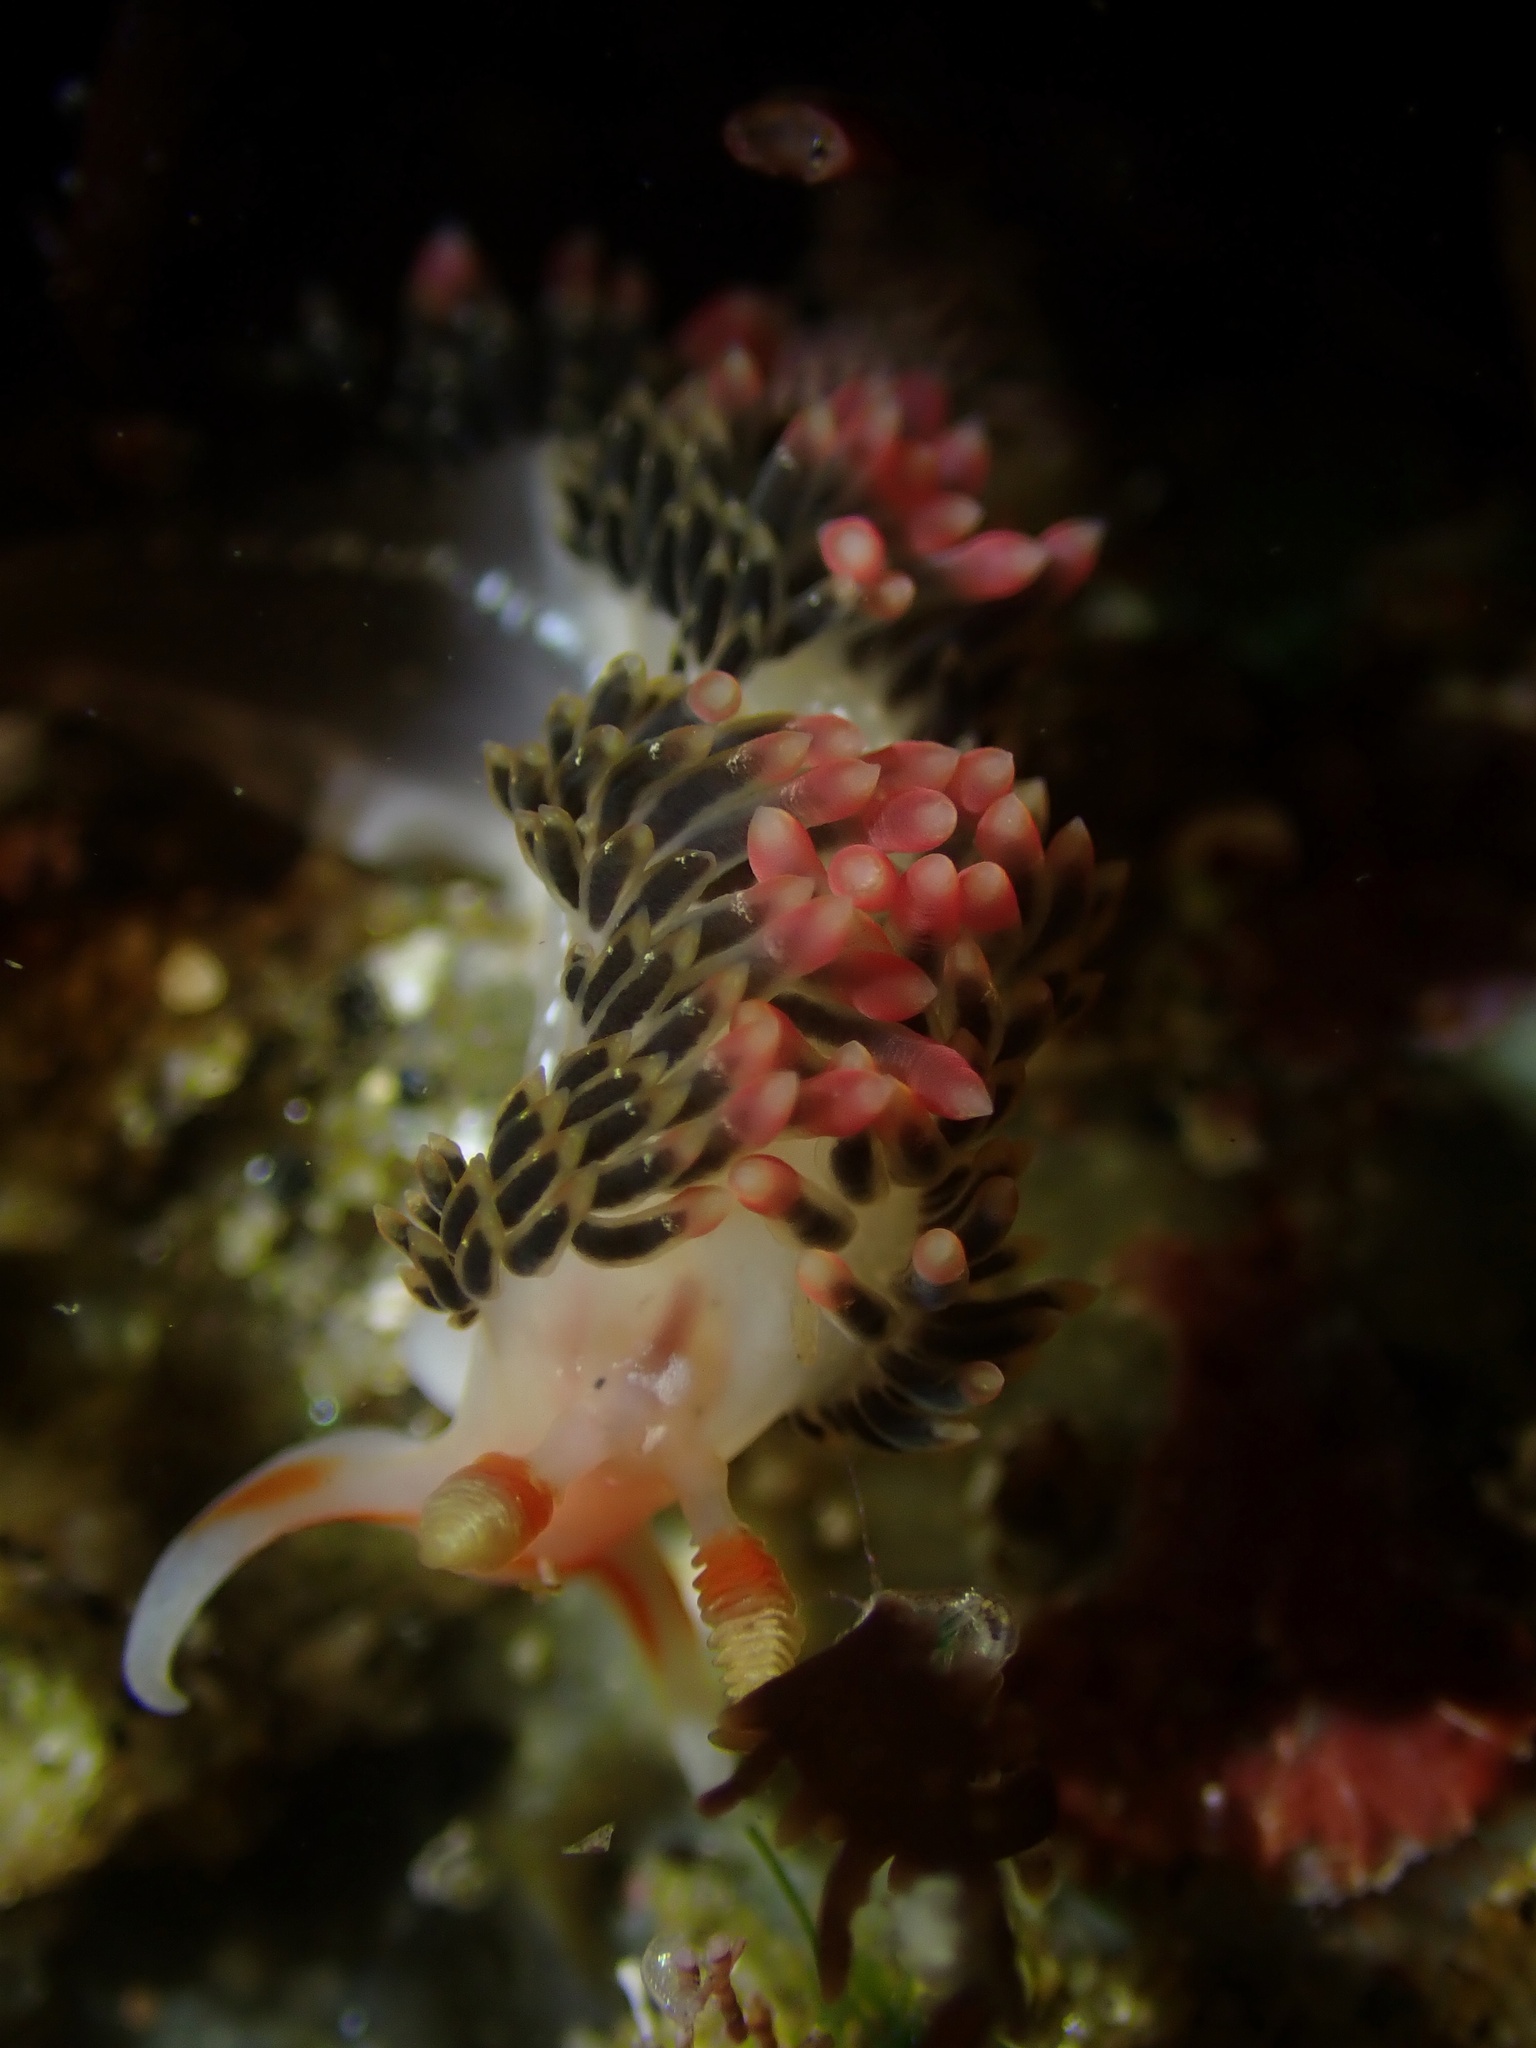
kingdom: Animalia
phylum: Mollusca
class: Gastropoda
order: Nudibranchia
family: Facelinidae
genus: Phidiana
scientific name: Phidiana hiltoni
